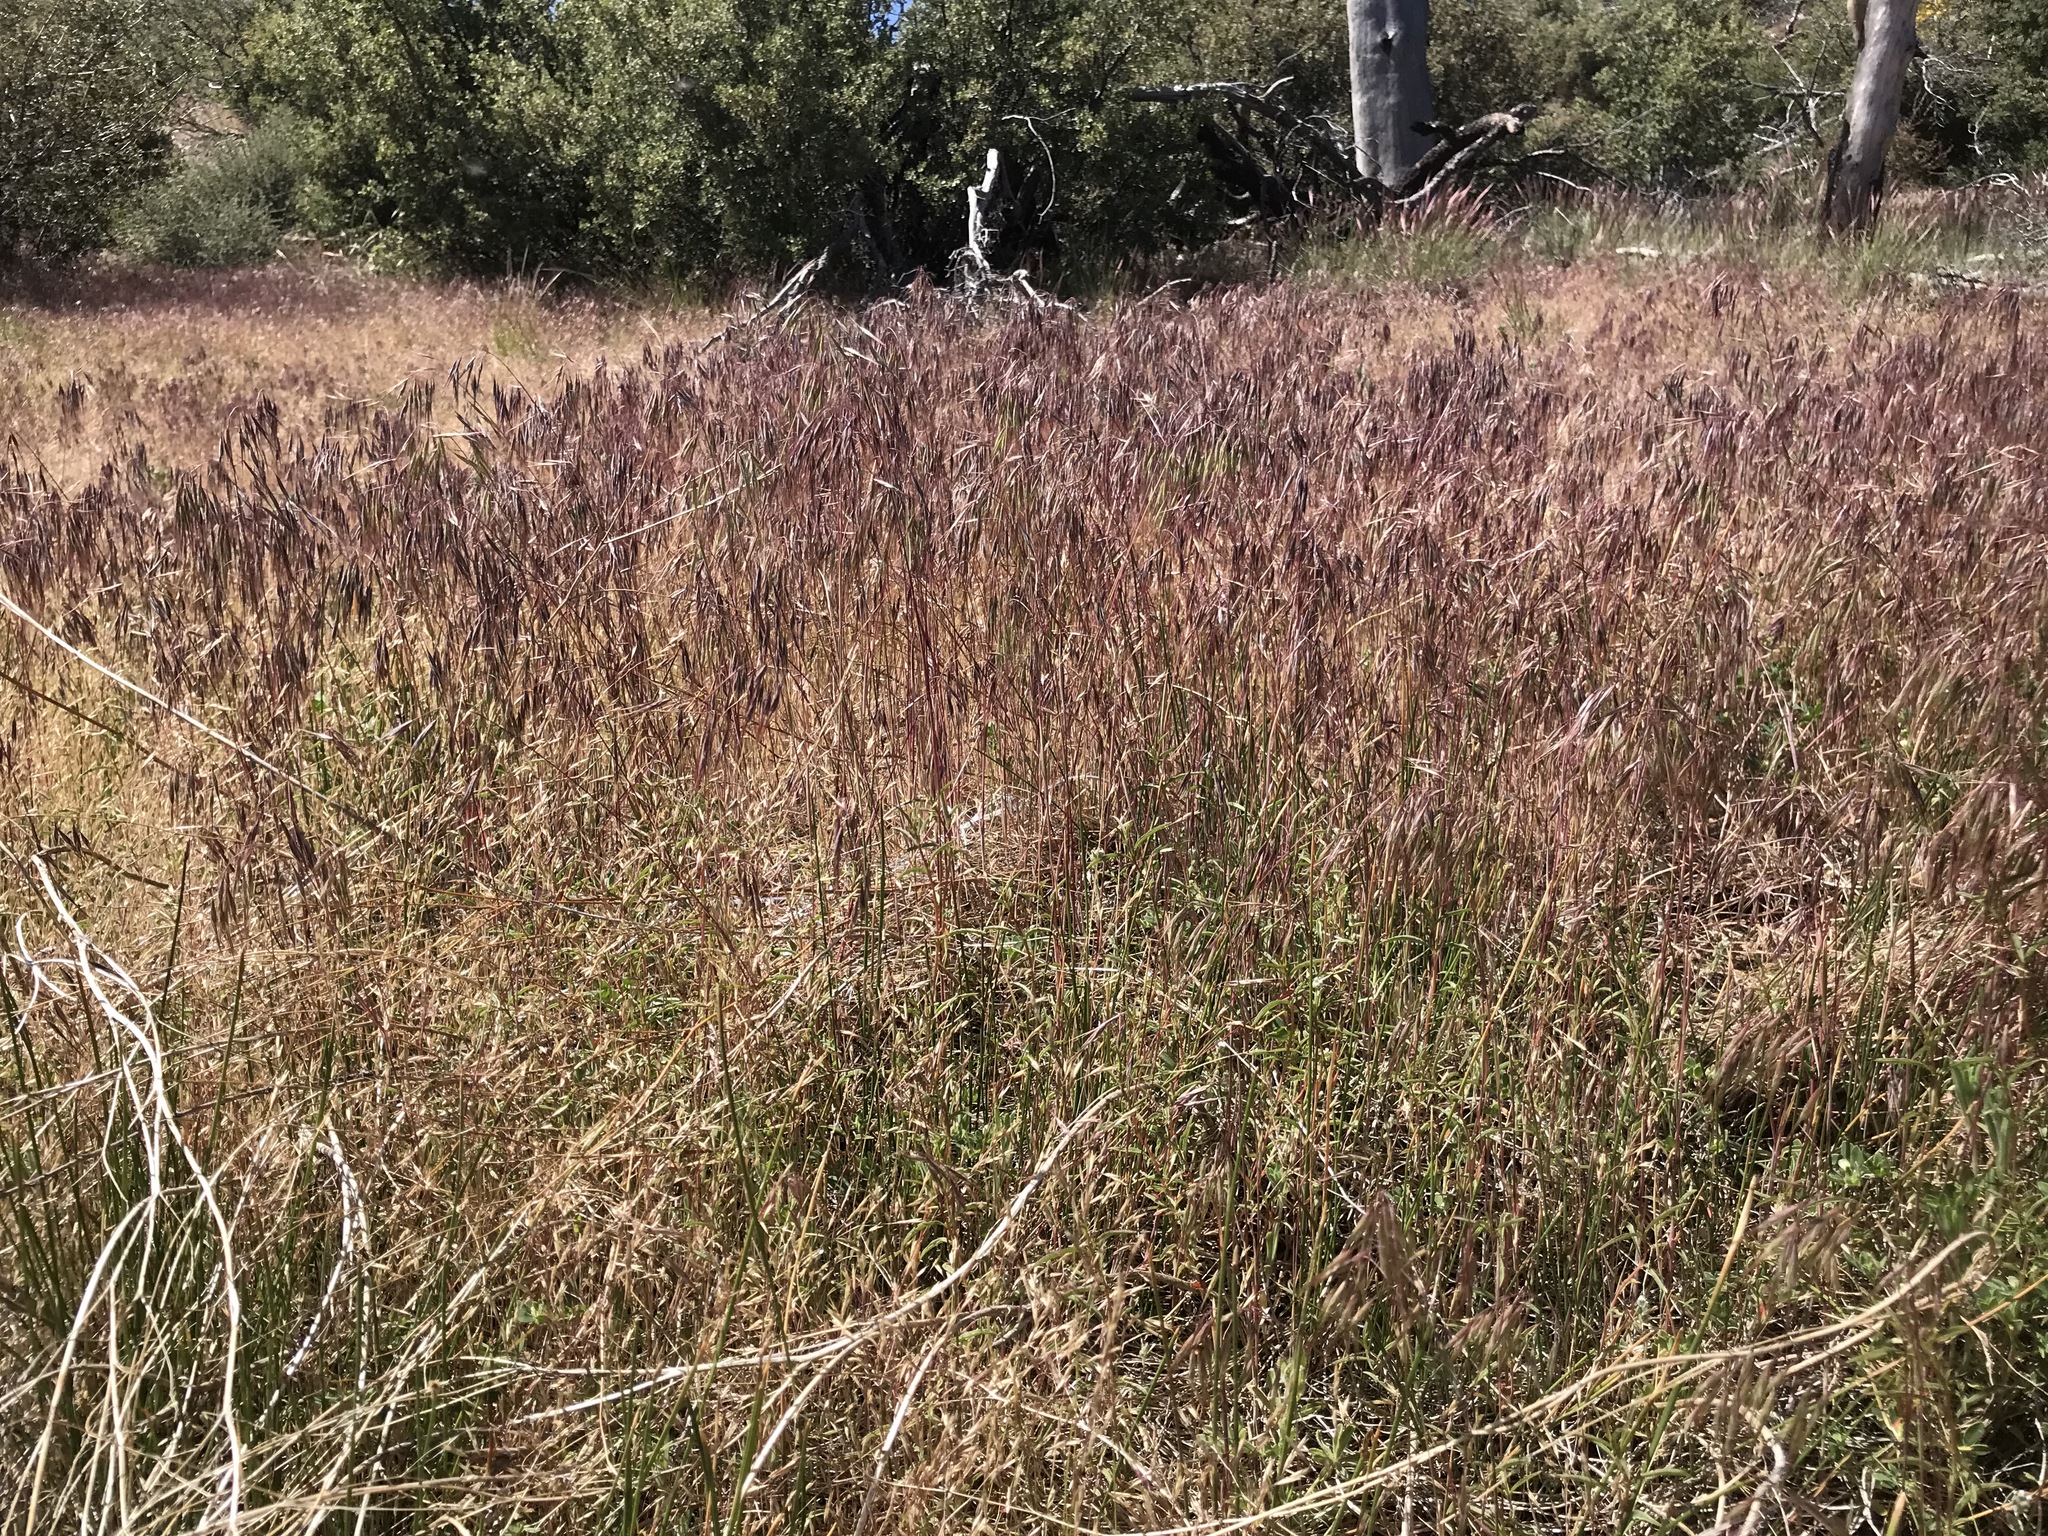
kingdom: Plantae
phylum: Tracheophyta
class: Liliopsida
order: Poales
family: Poaceae
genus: Bromus
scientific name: Bromus tectorum
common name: Cheatgrass
